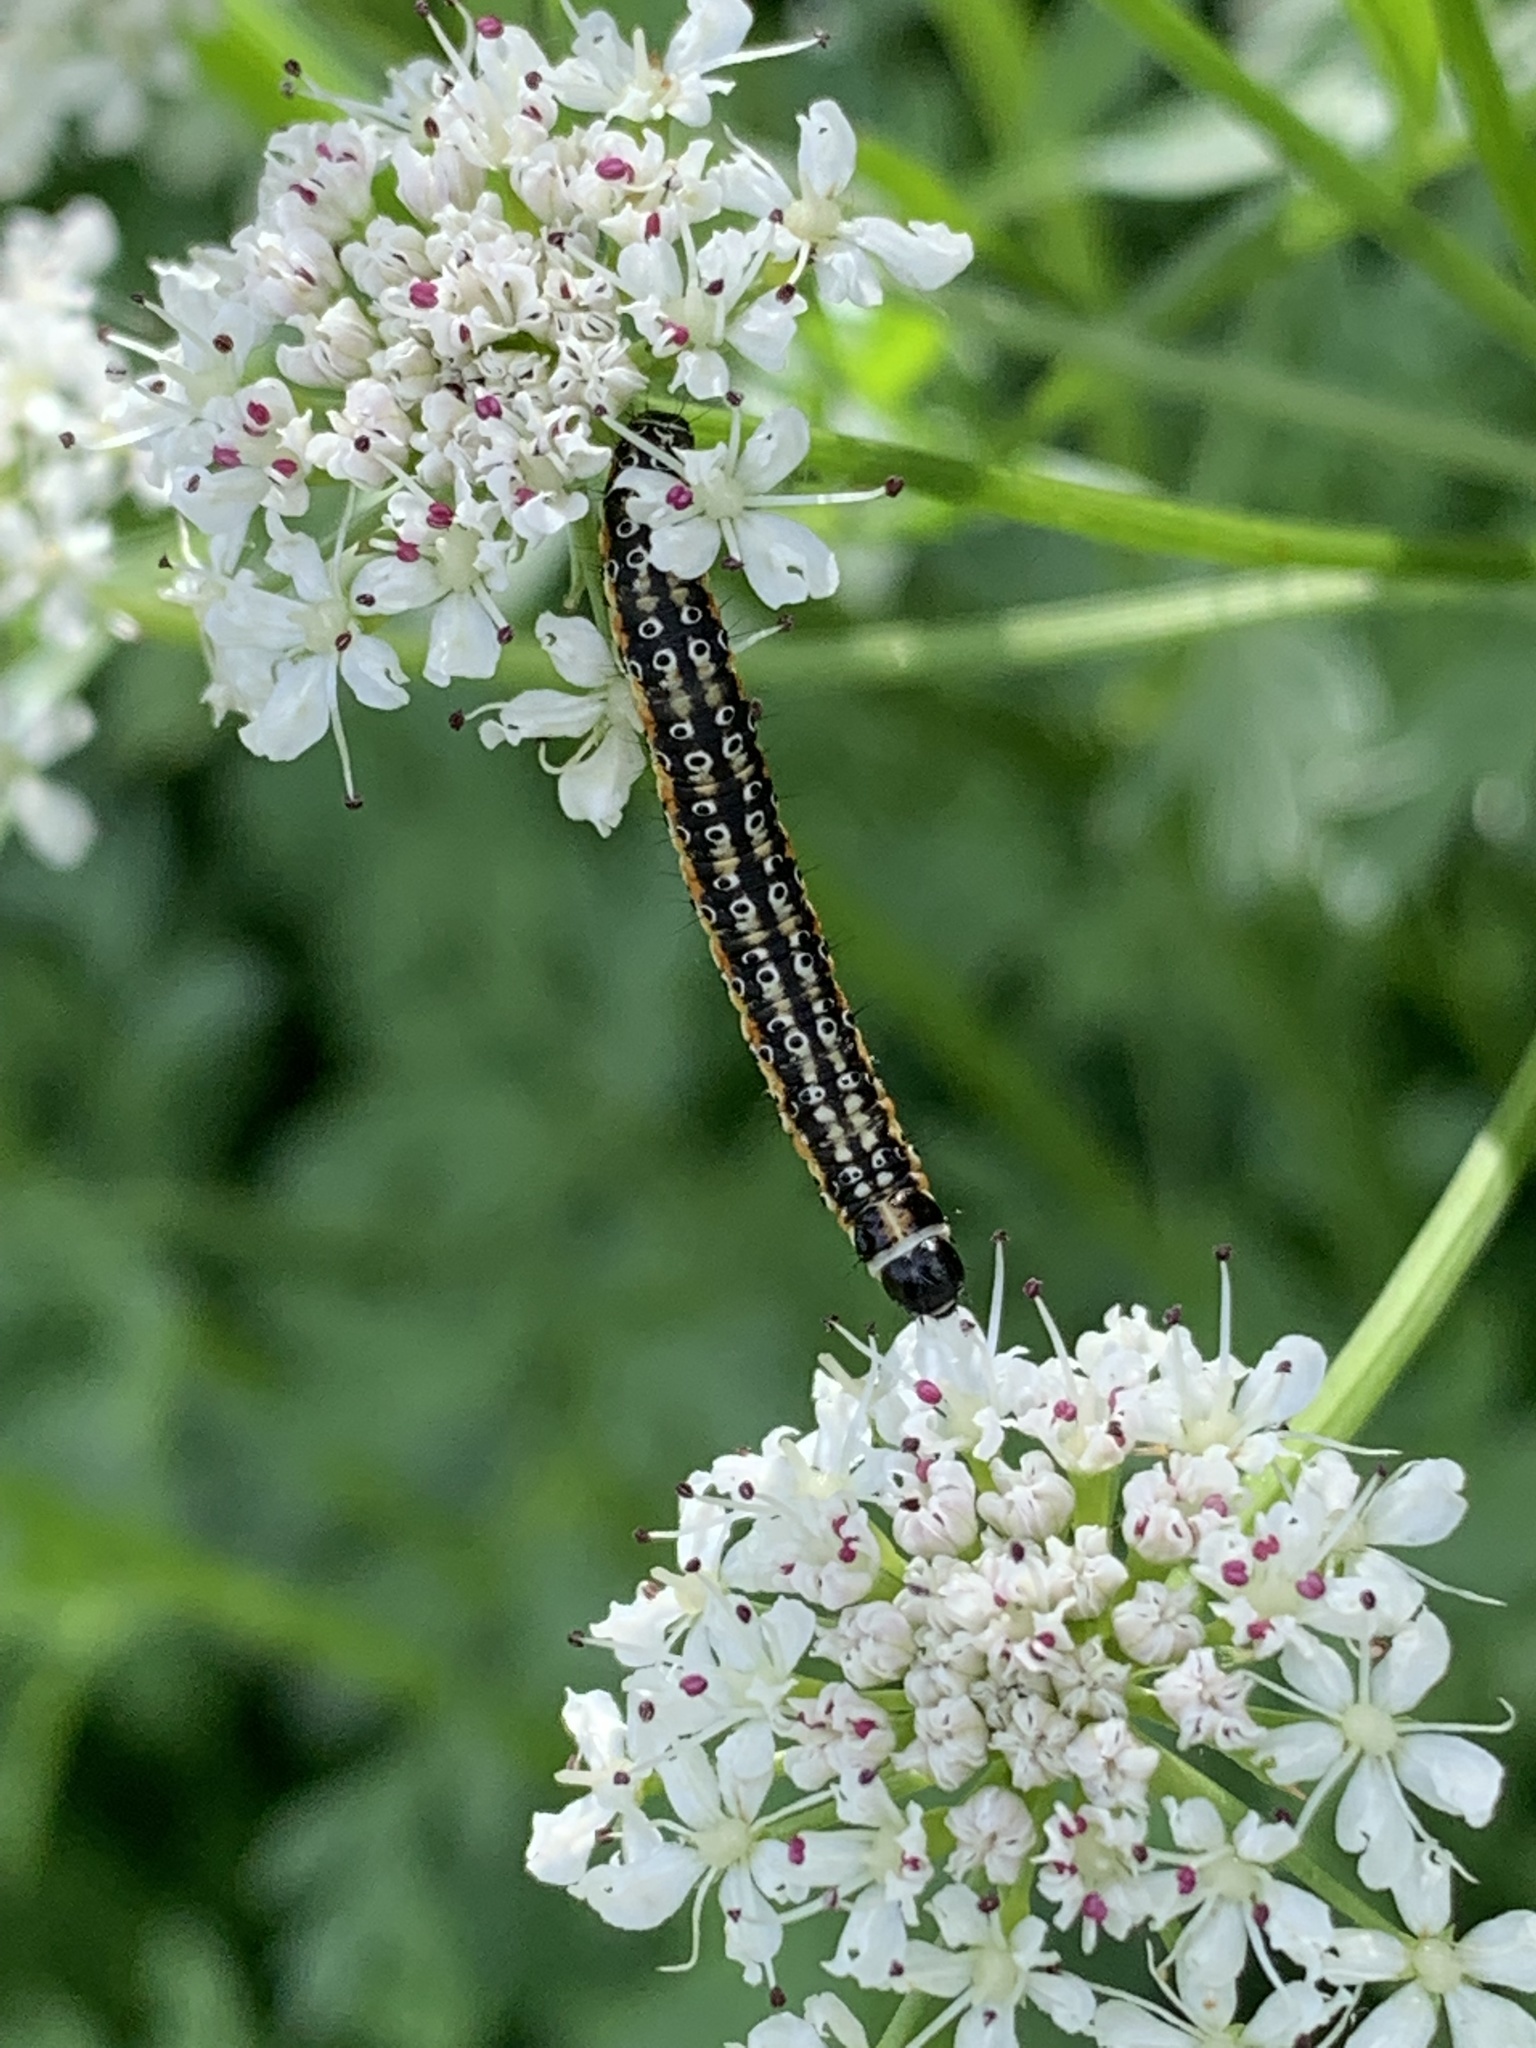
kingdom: Animalia
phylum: Arthropoda
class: Insecta
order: Lepidoptera
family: Depressariidae
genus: Depressaria
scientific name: Depressaria apiella
